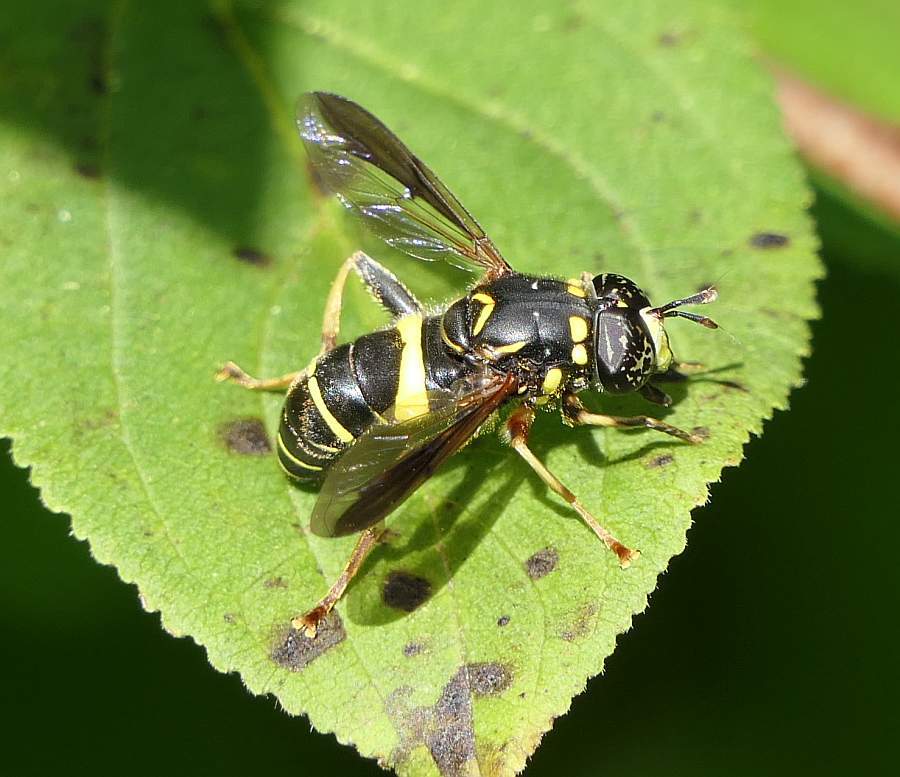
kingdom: Animalia
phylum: Arthropoda
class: Insecta
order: Diptera
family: Syrphidae
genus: Spilomyia
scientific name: Spilomyia sayi
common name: Four-lined hornet fly
